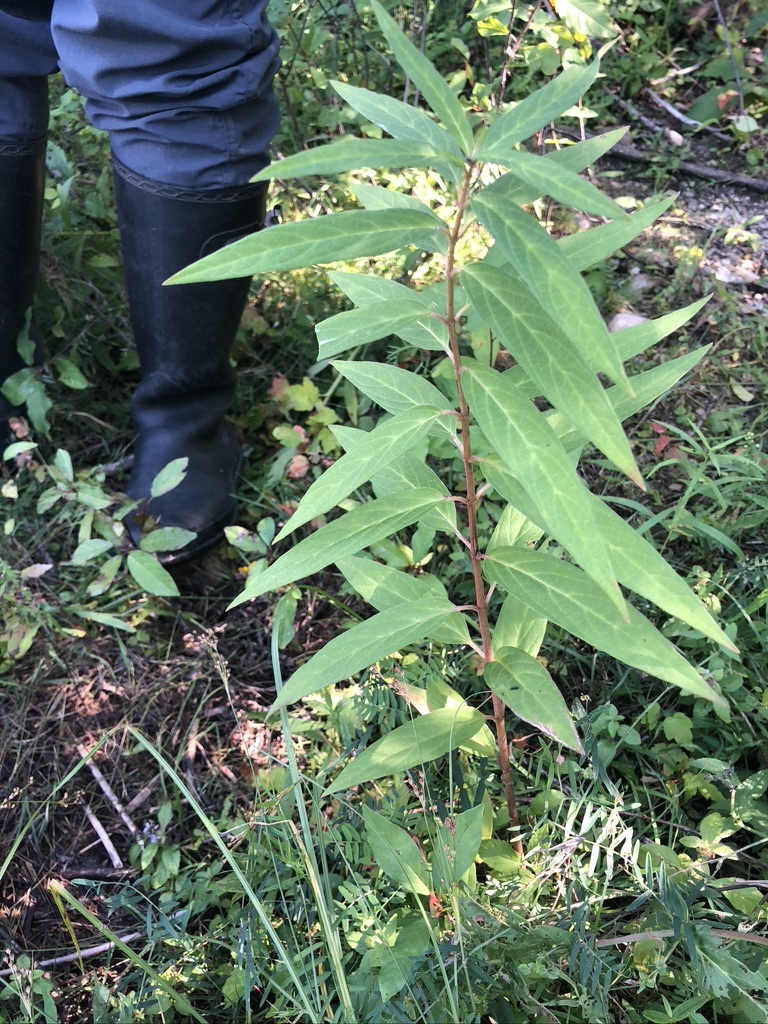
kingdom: Plantae
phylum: Tracheophyta
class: Magnoliopsida
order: Gentianales
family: Apocynaceae
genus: Asclepias
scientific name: Asclepias incarnata
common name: Swamp milkweed
